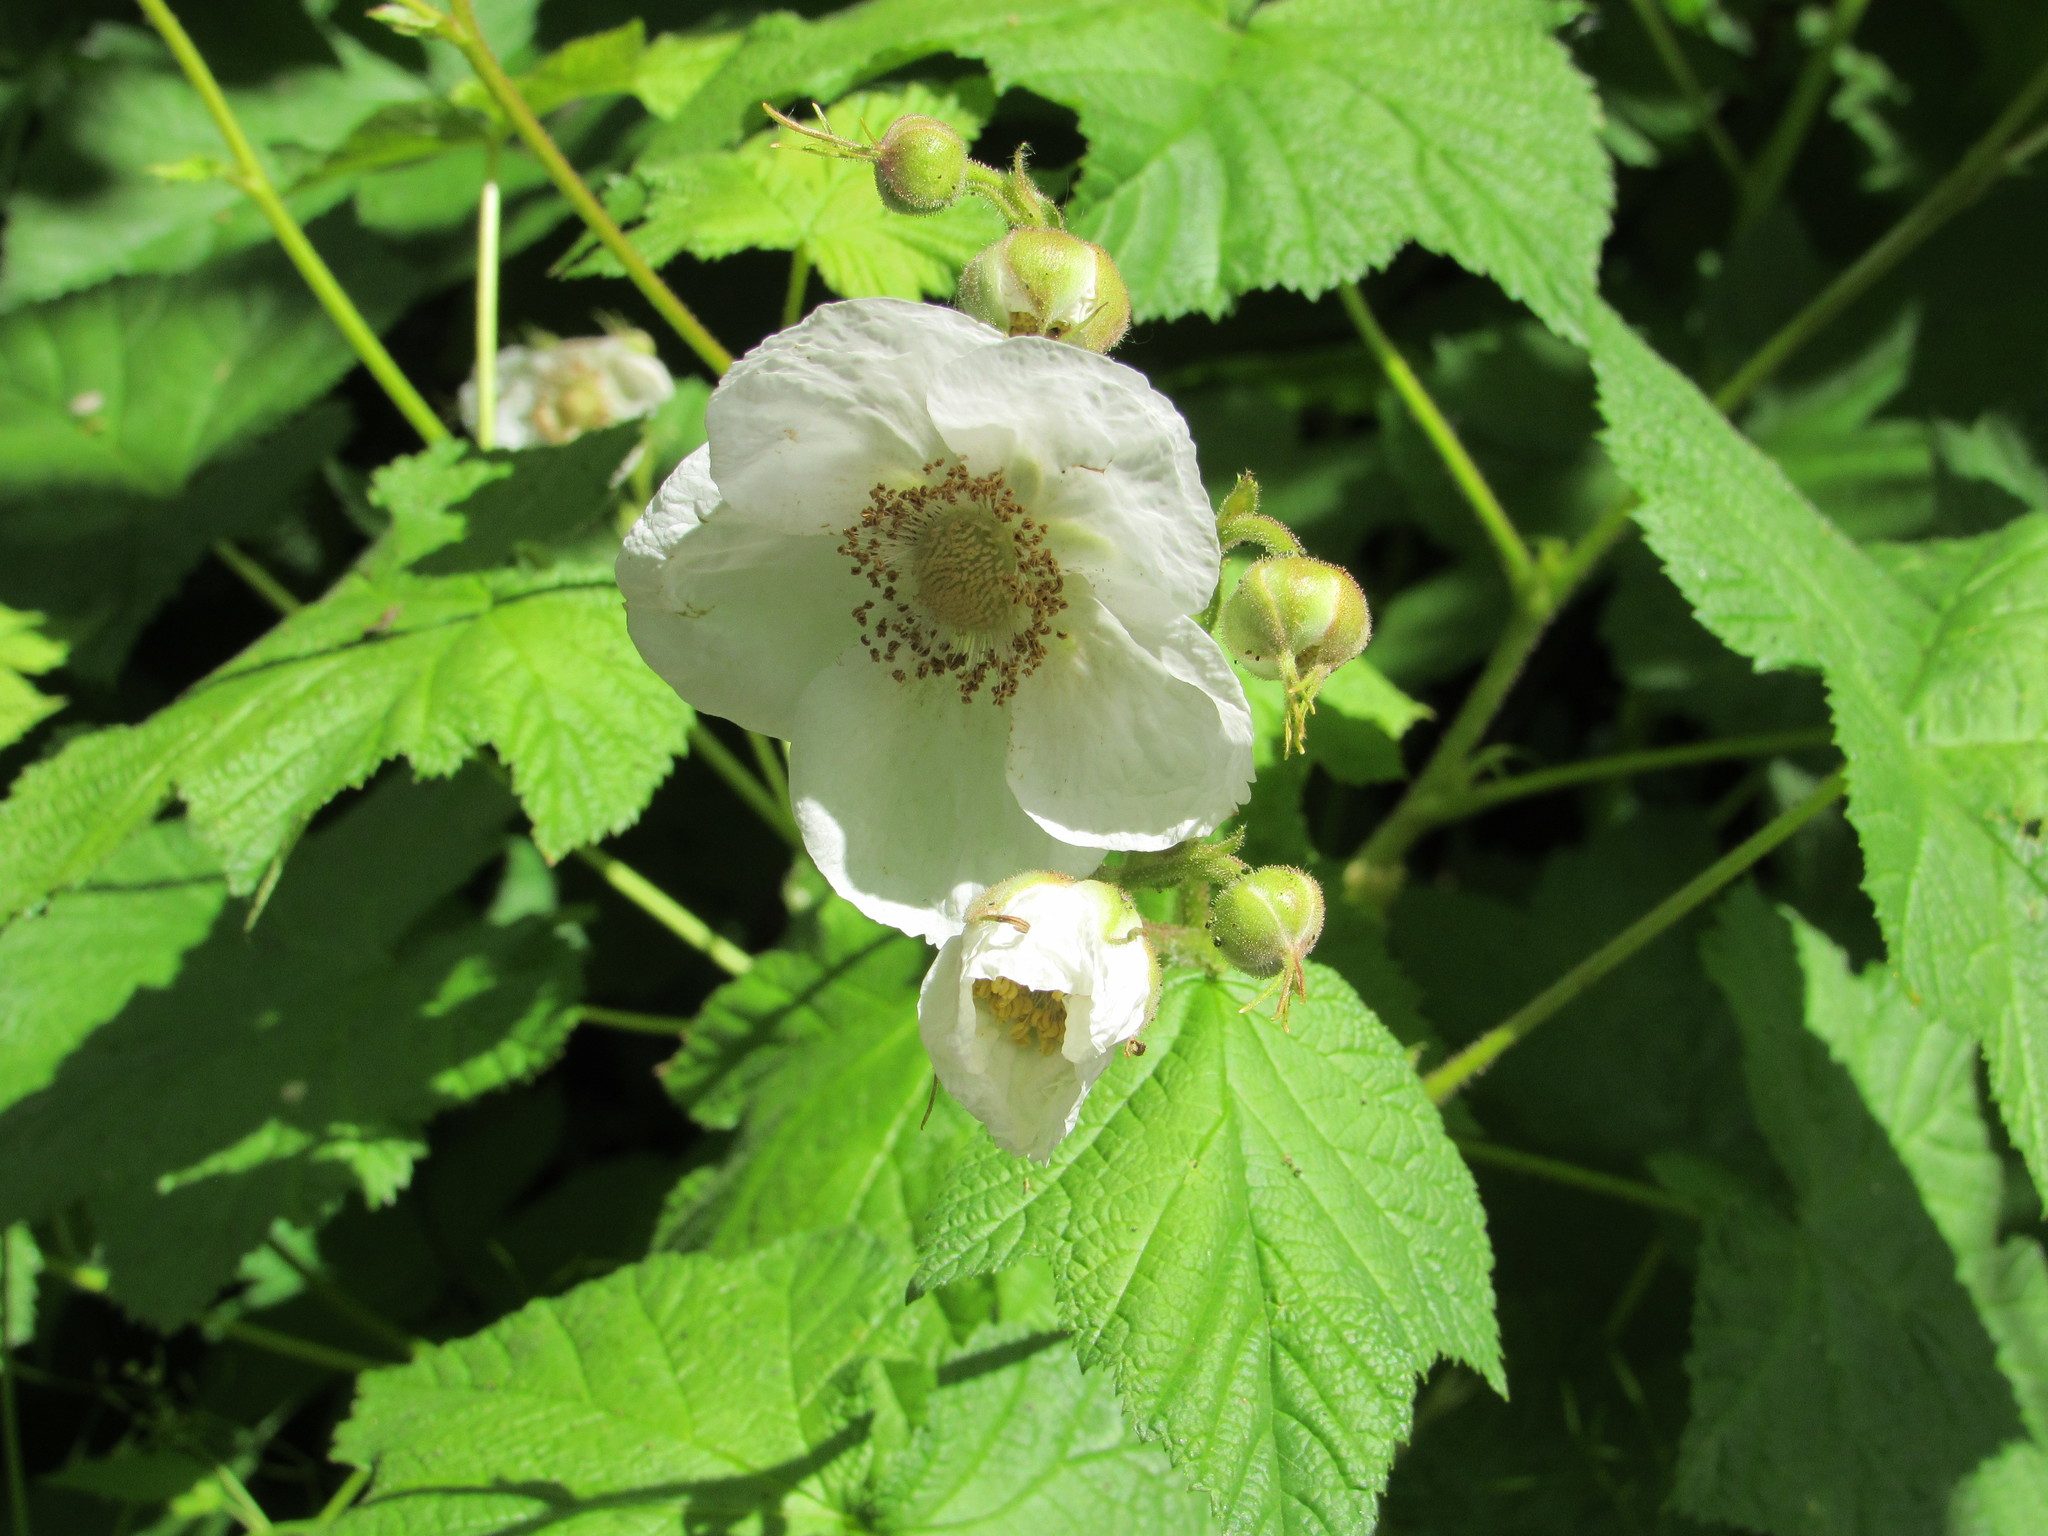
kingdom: Plantae
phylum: Tracheophyta
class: Magnoliopsida
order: Rosales
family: Rosaceae
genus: Rubus
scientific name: Rubus parviflorus
